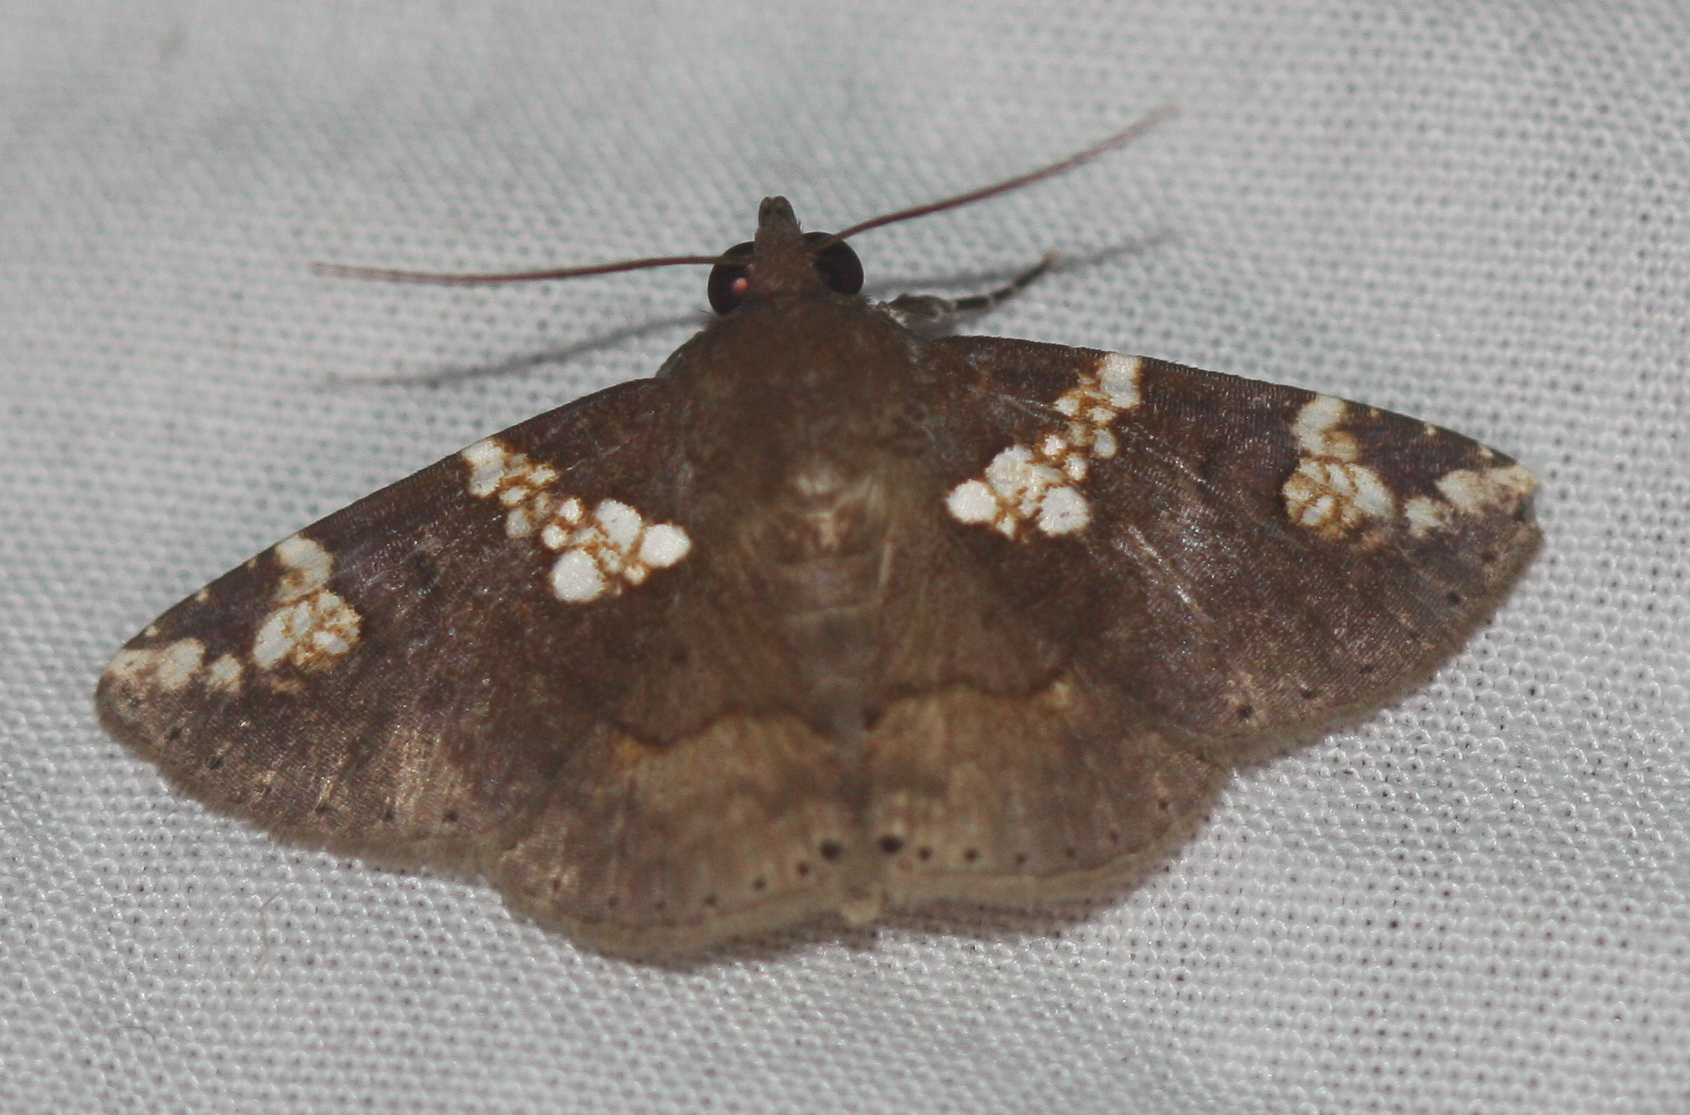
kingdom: Animalia
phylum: Arthropoda
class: Insecta
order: Lepidoptera
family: Erebidae
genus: Antiblemma
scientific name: Antiblemma perornata
